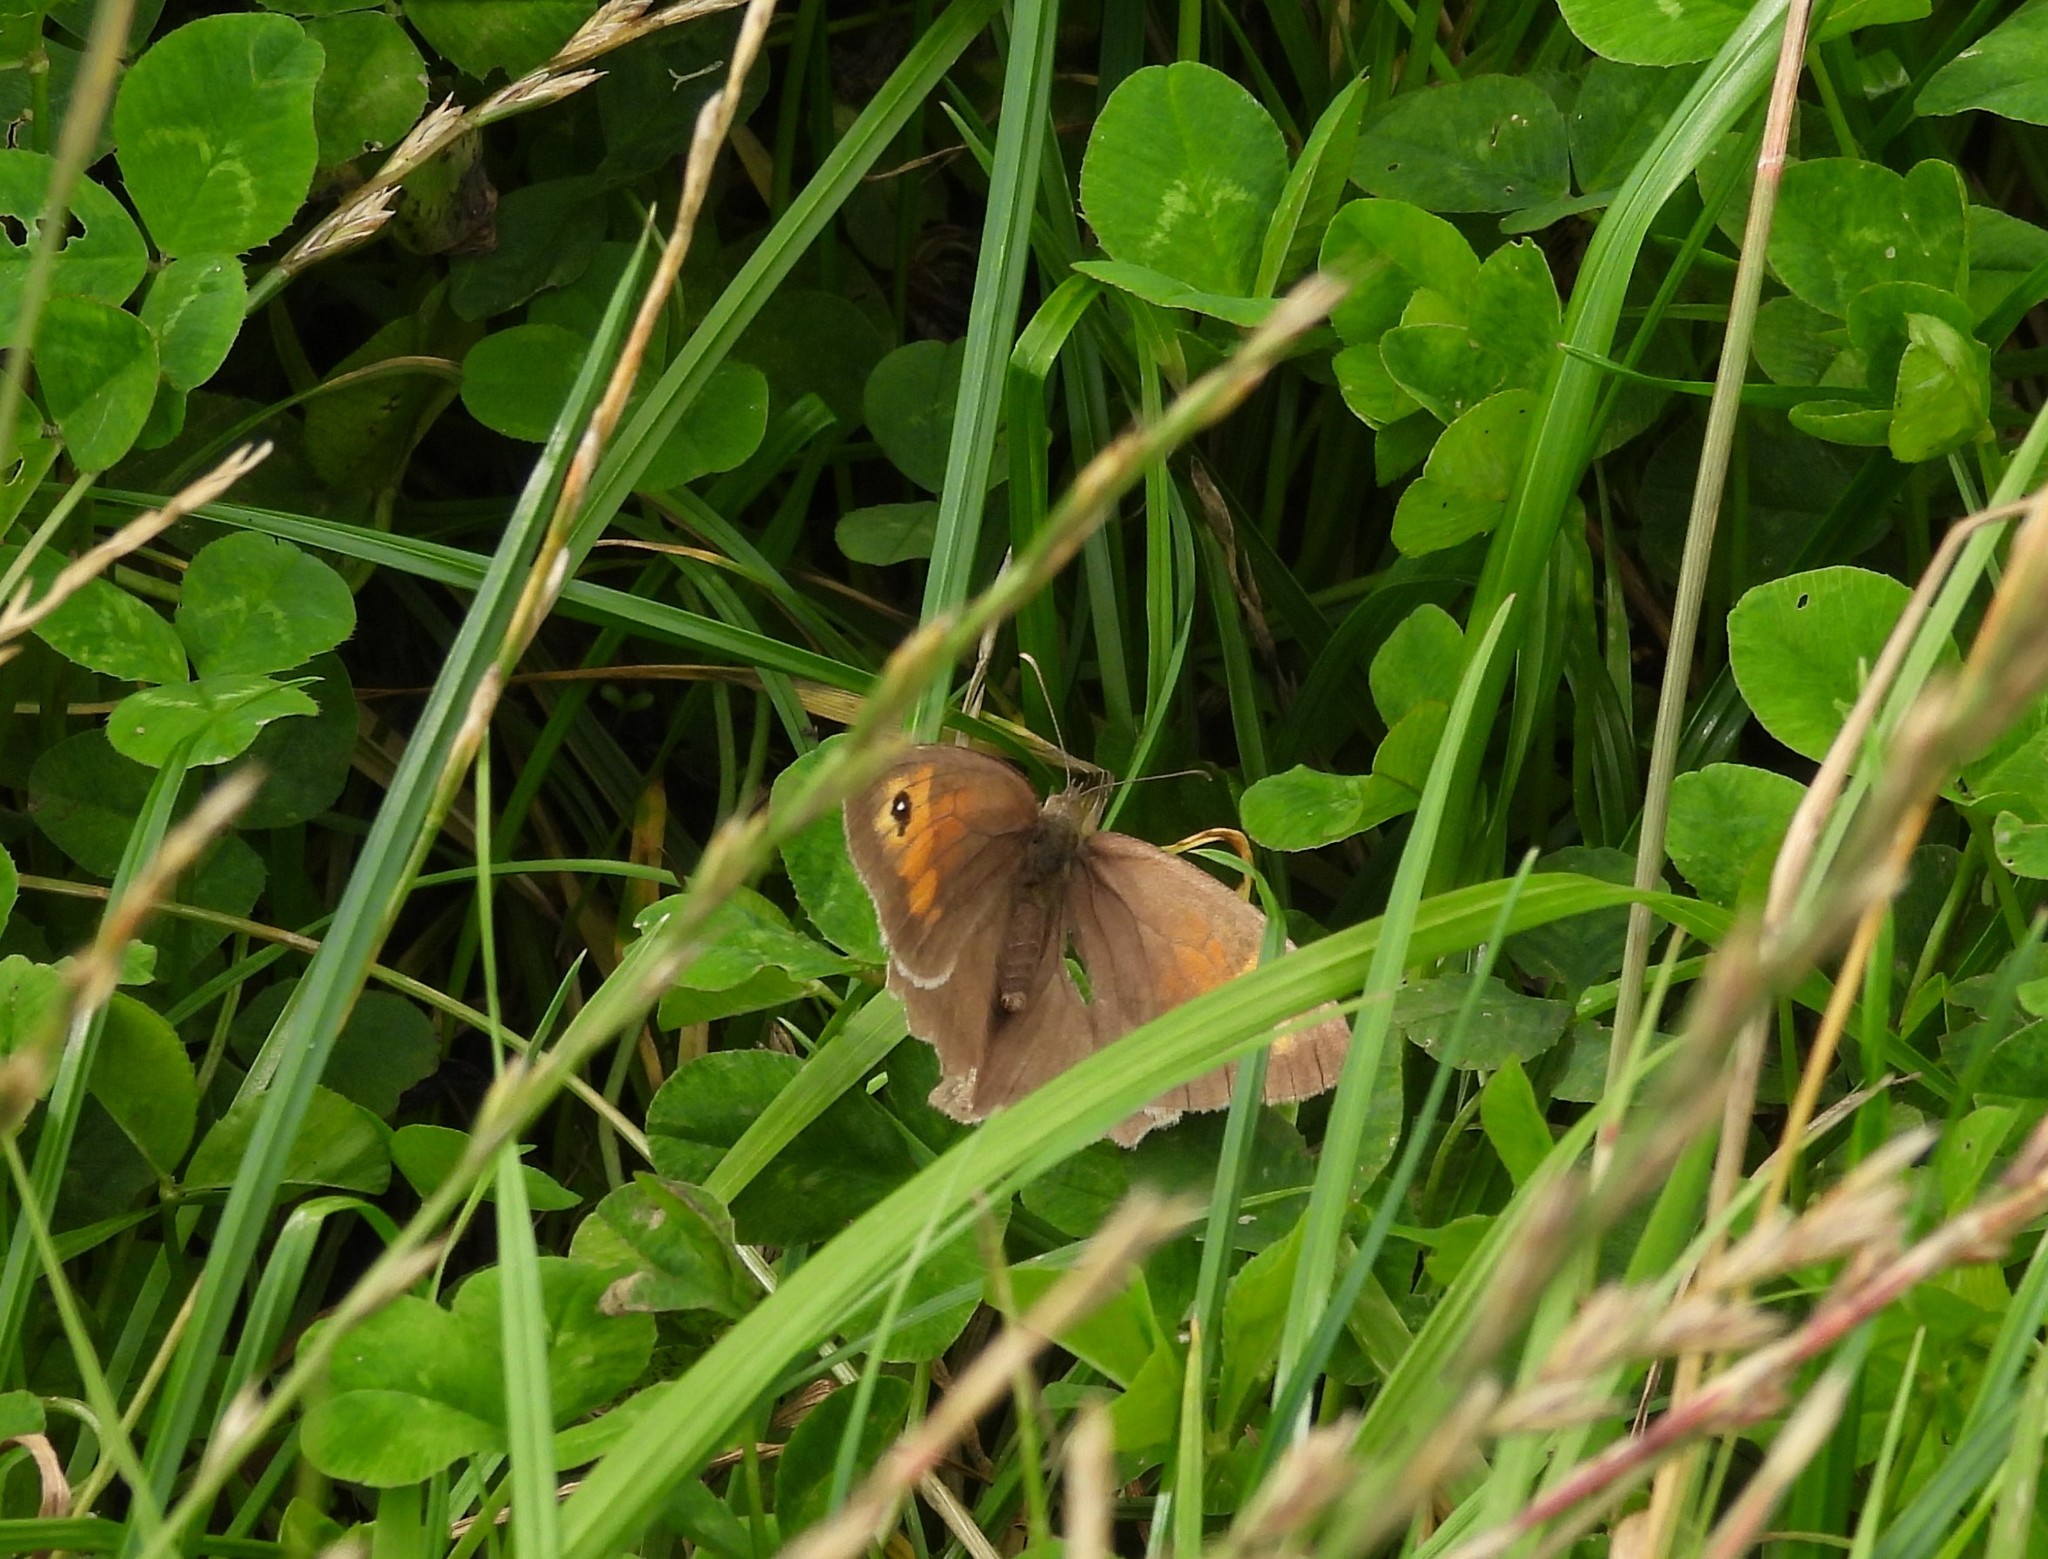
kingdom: Animalia
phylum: Arthropoda
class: Insecta
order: Lepidoptera
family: Nymphalidae
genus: Maniola
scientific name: Maniola jurtina
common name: Meadow brown
